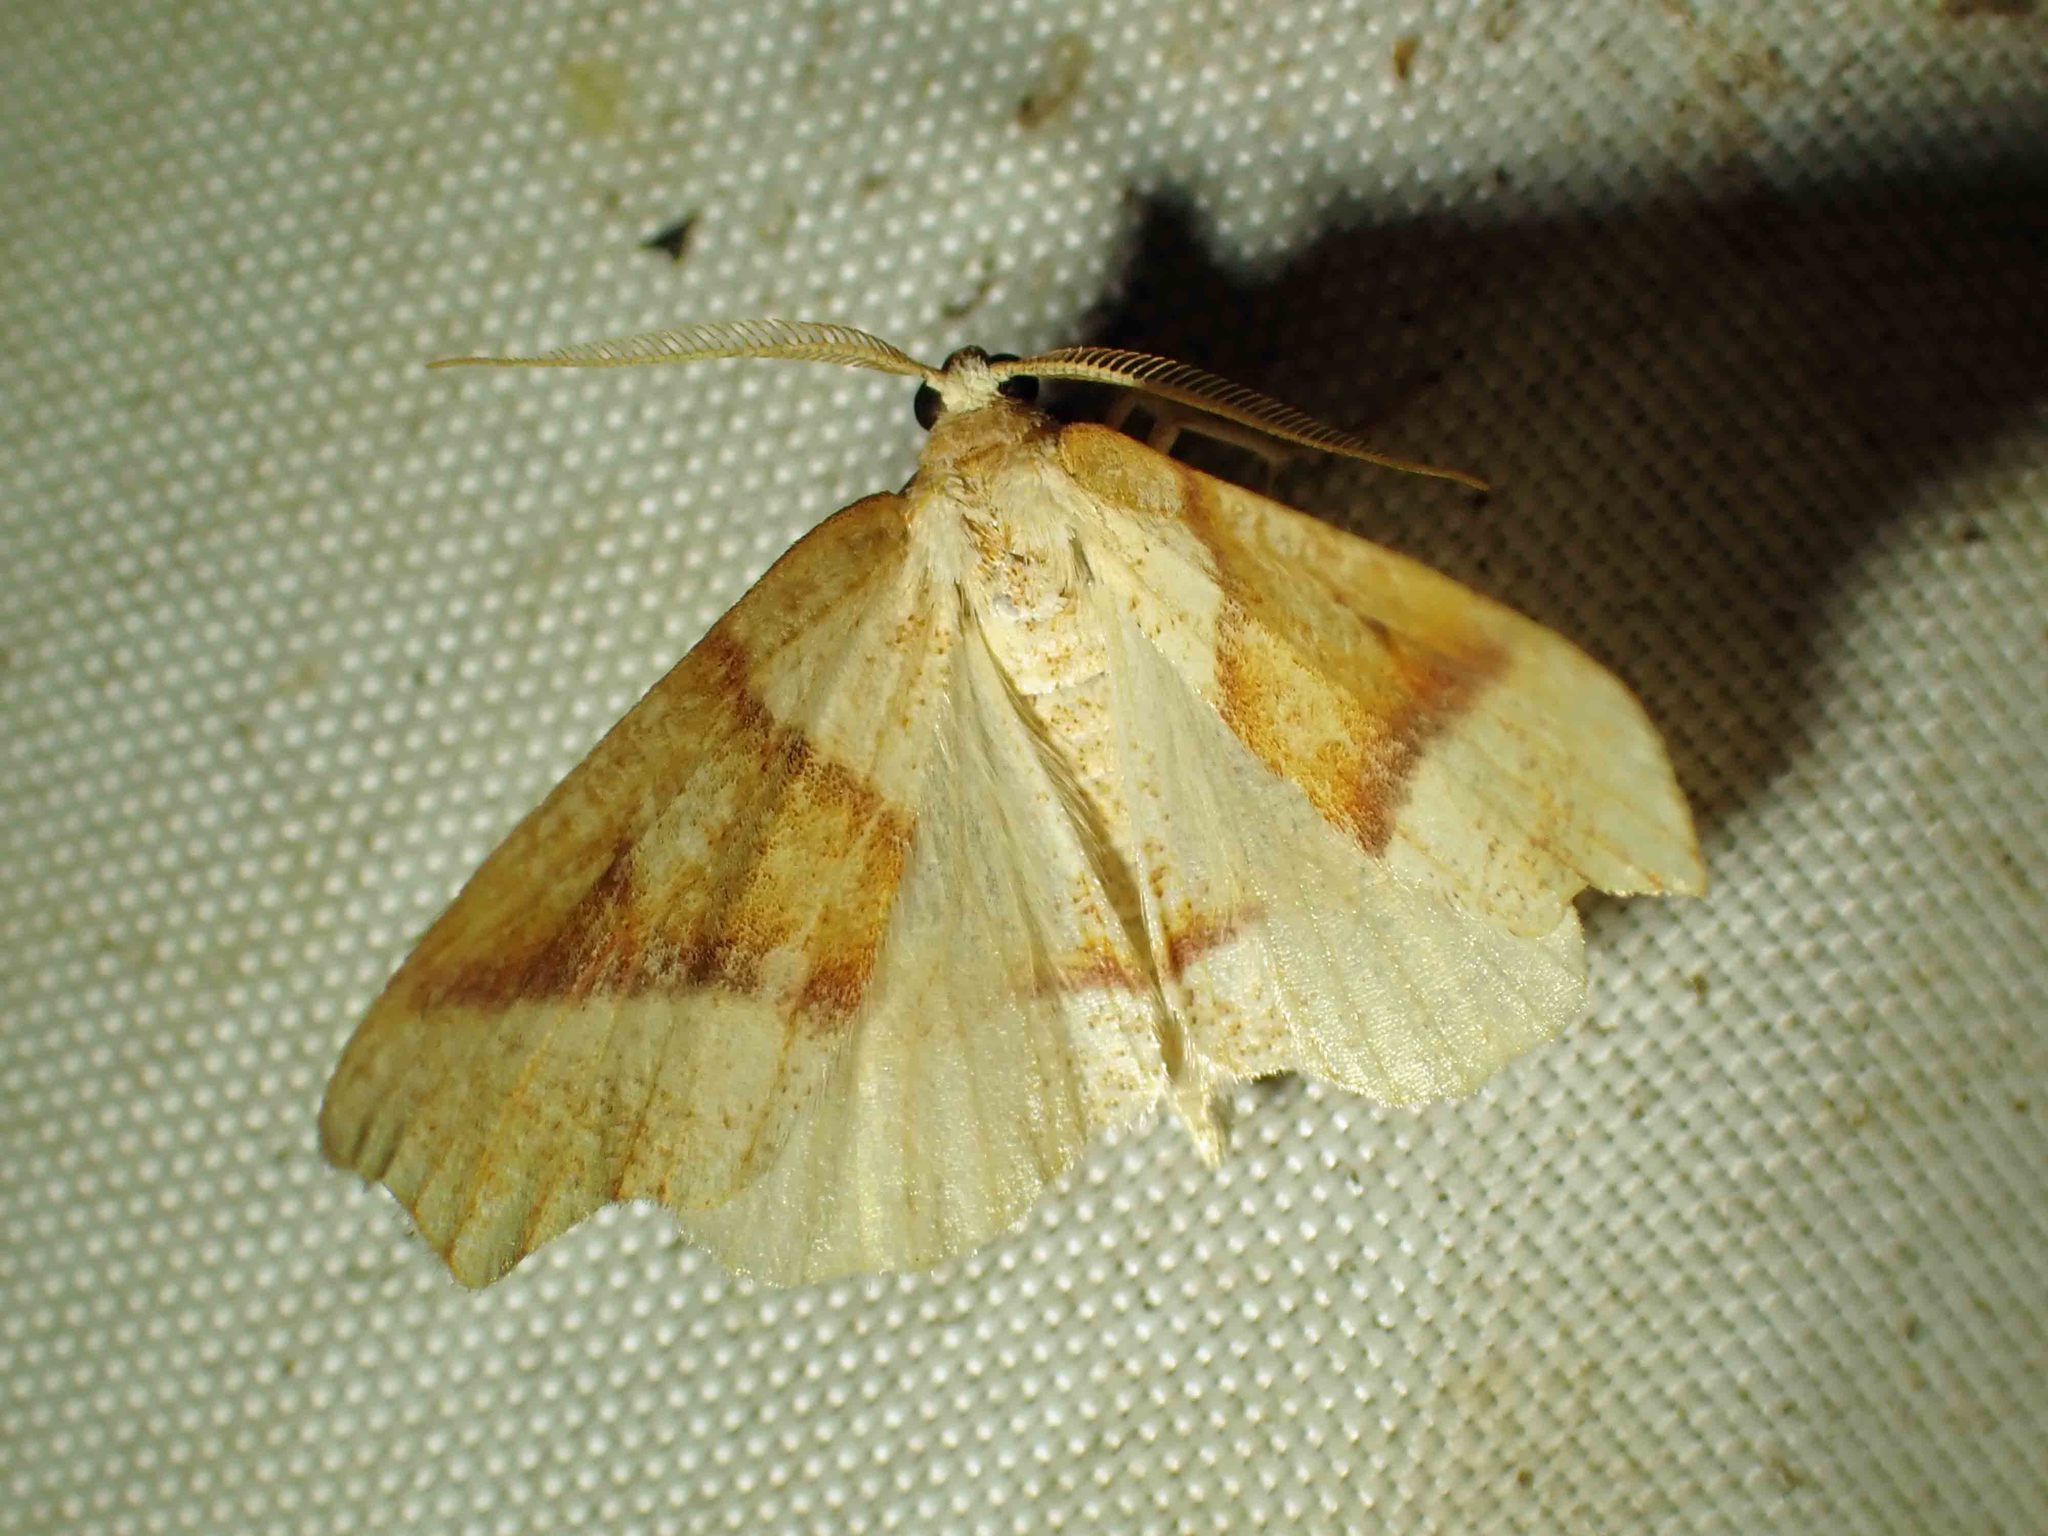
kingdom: Animalia
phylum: Arthropoda
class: Insecta
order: Lepidoptera
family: Geometridae
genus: Plagodis
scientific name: Plagodis alcoolaria
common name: Hollow-spotted plagodis
